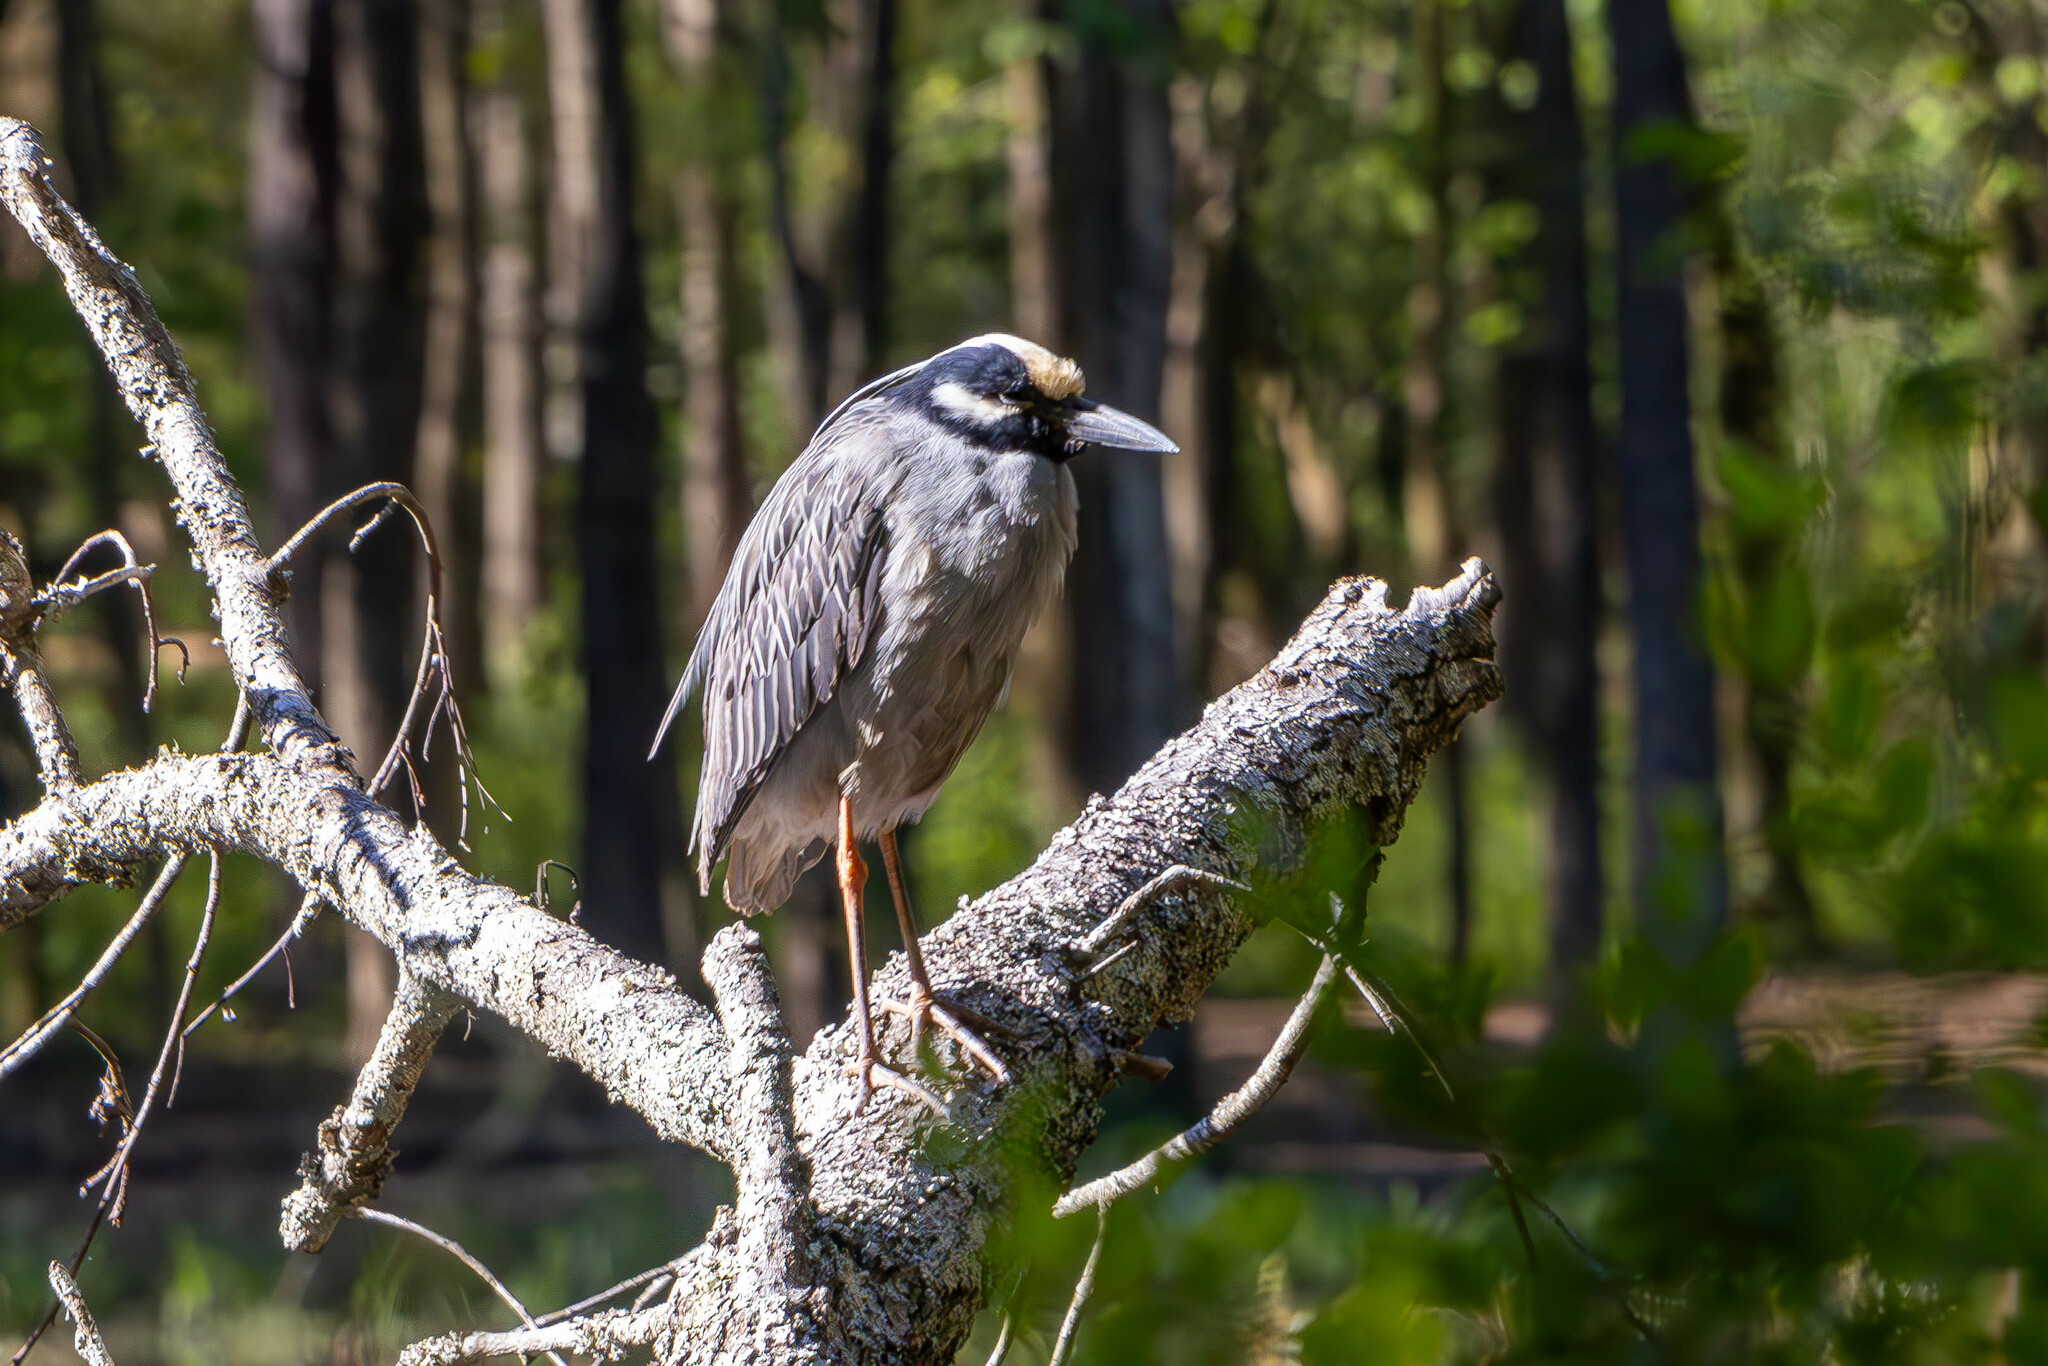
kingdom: Animalia
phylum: Chordata
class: Aves
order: Pelecaniformes
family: Ardeidae
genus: Nyctanassa
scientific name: Nyctanassa violacea
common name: Yellow-crowned night heron
